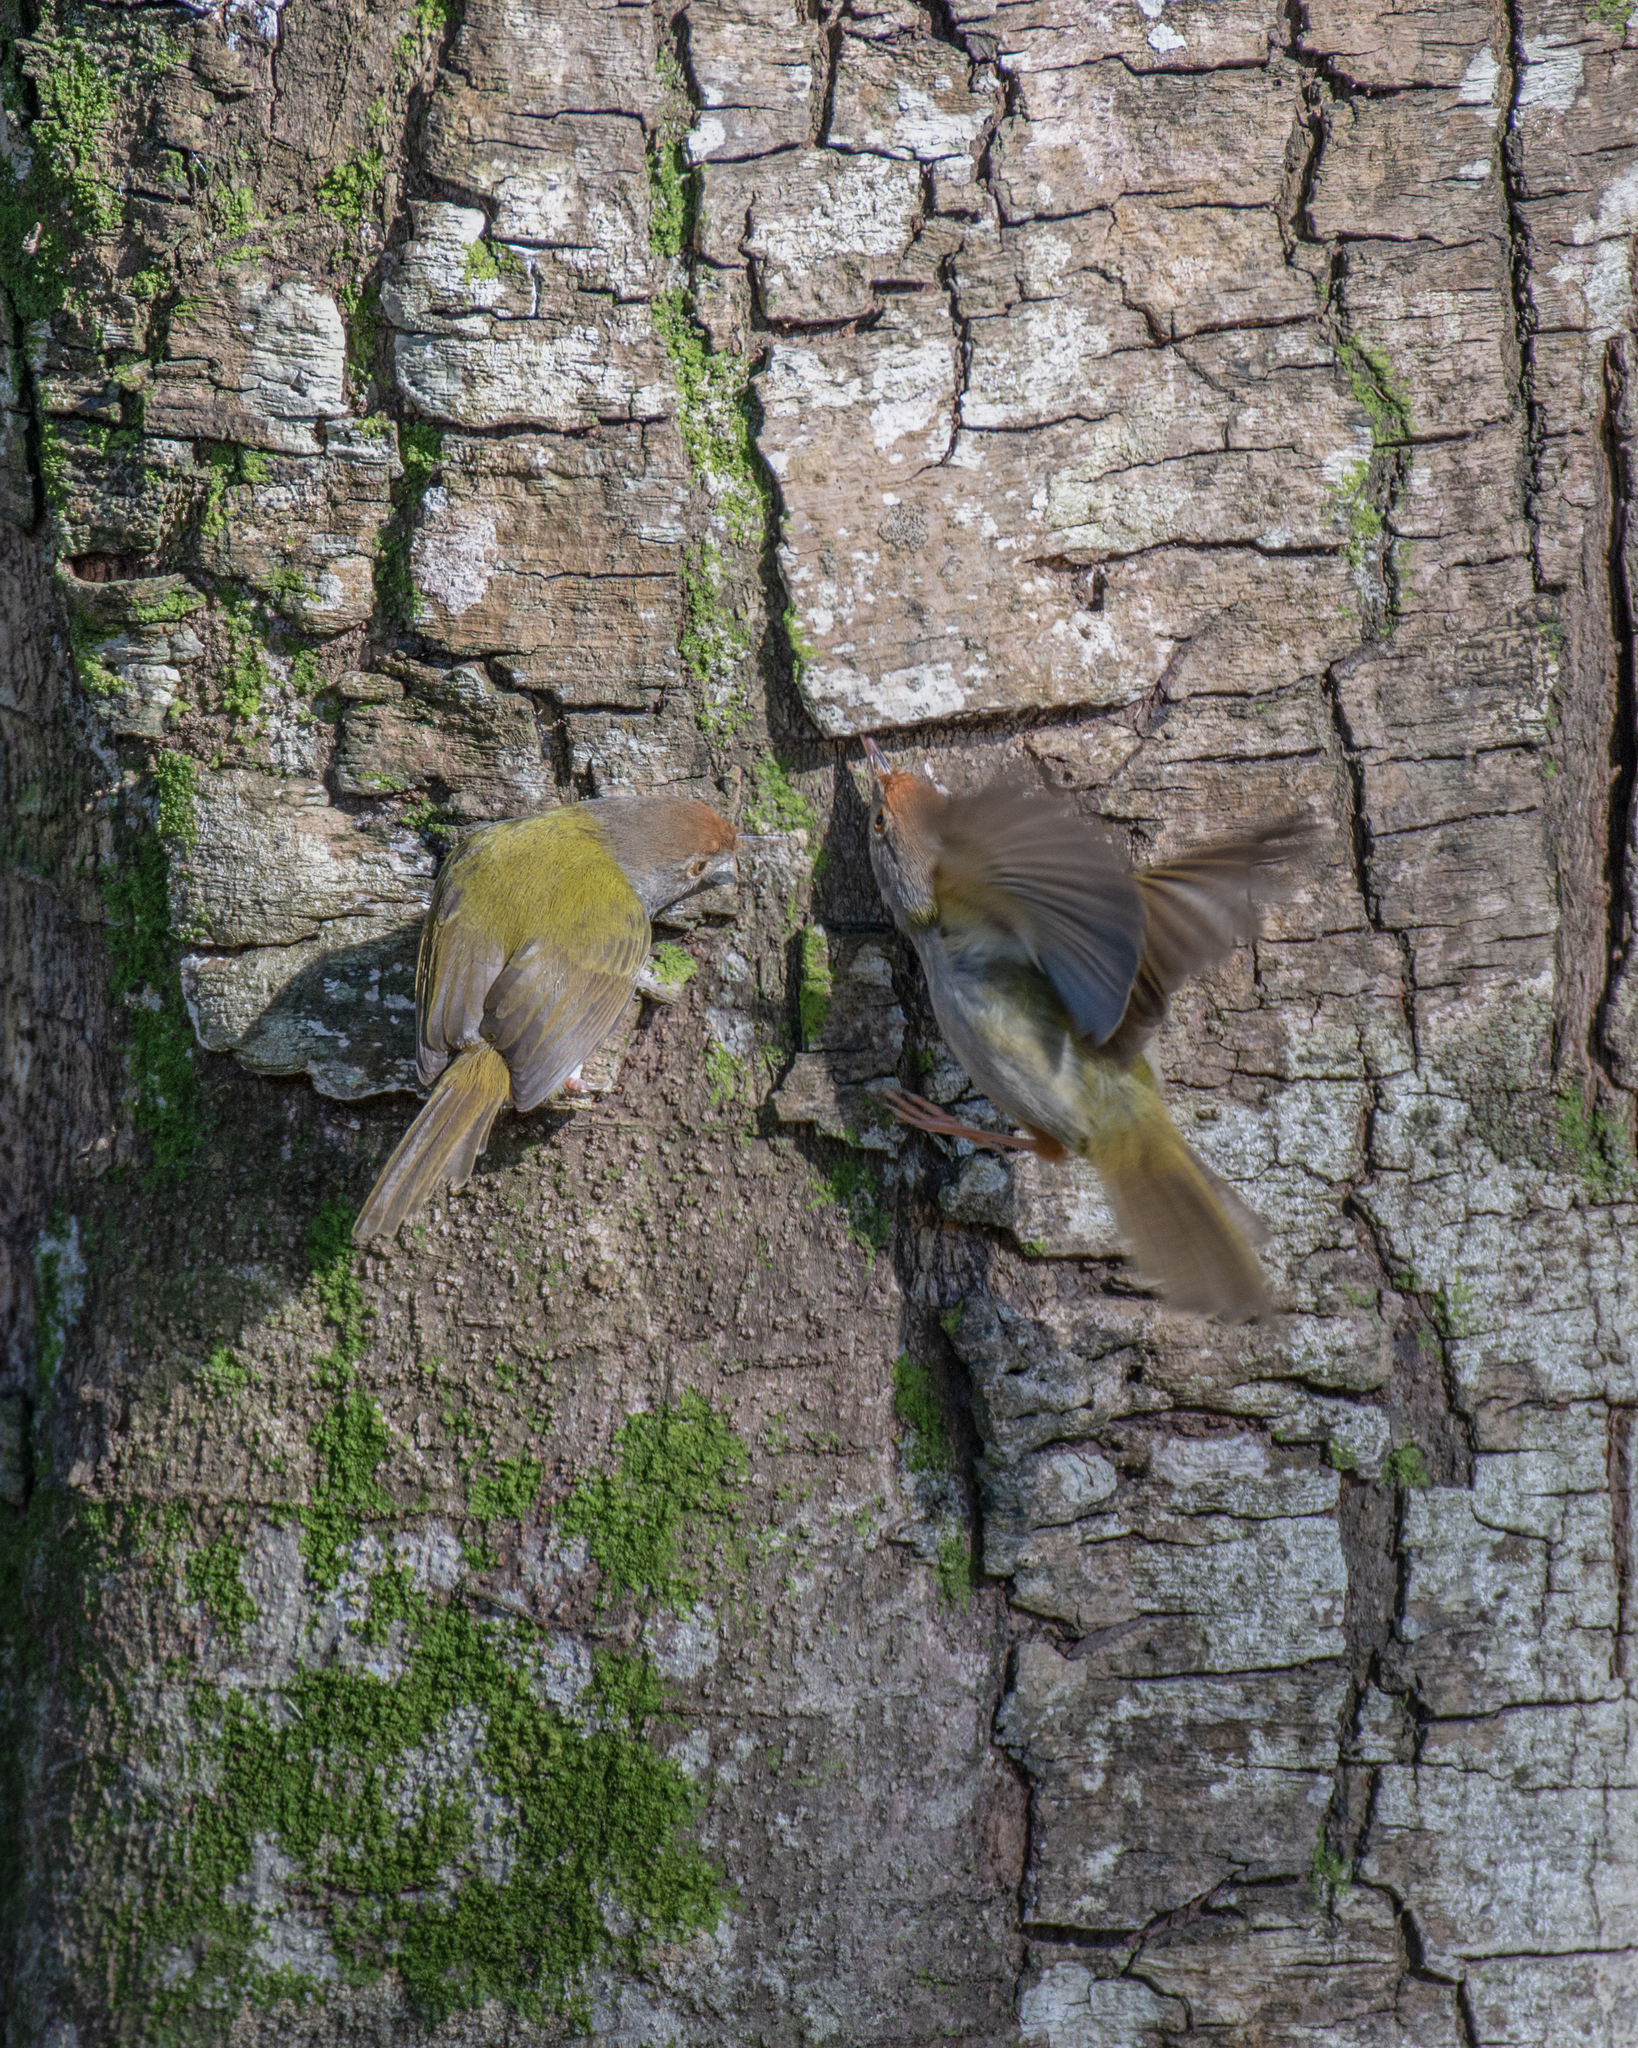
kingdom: Animalia
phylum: Chordata
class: Aves
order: Passeriformes
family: Cisticolidae
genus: Orthotomus
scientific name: Orthotomus sutorius
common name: Common tailorbird
